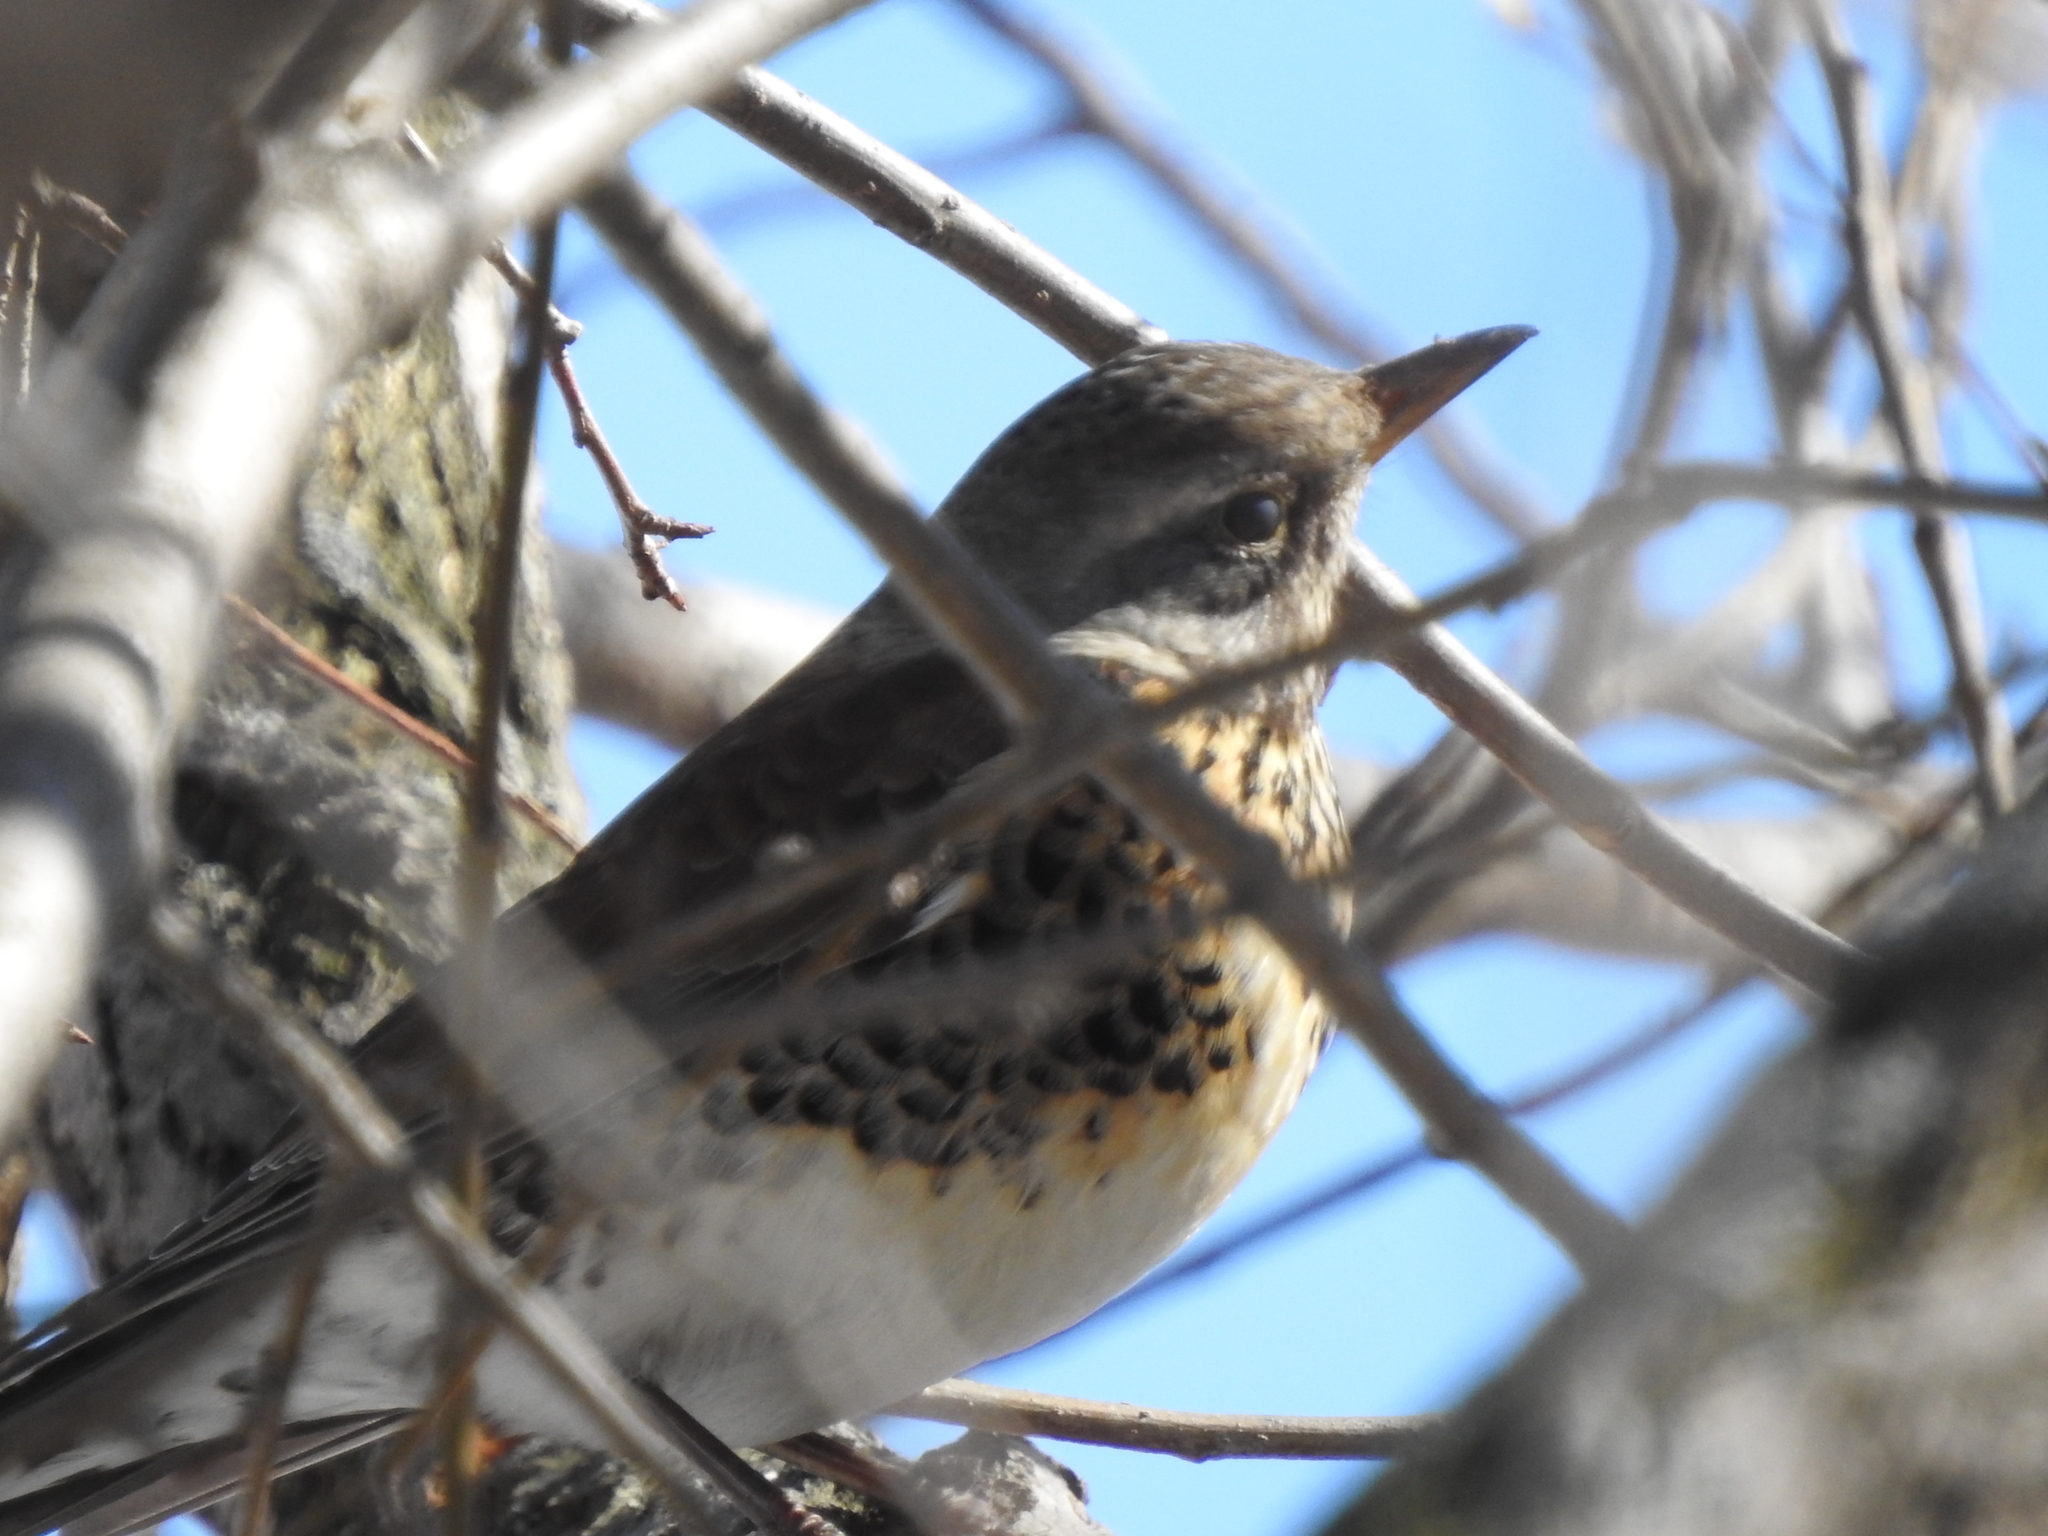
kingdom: Animalia
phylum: Chordata
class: Aves
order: Passeriformes
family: Turdidae
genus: Turdus
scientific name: Turdus pilaris
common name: Fieldfare
